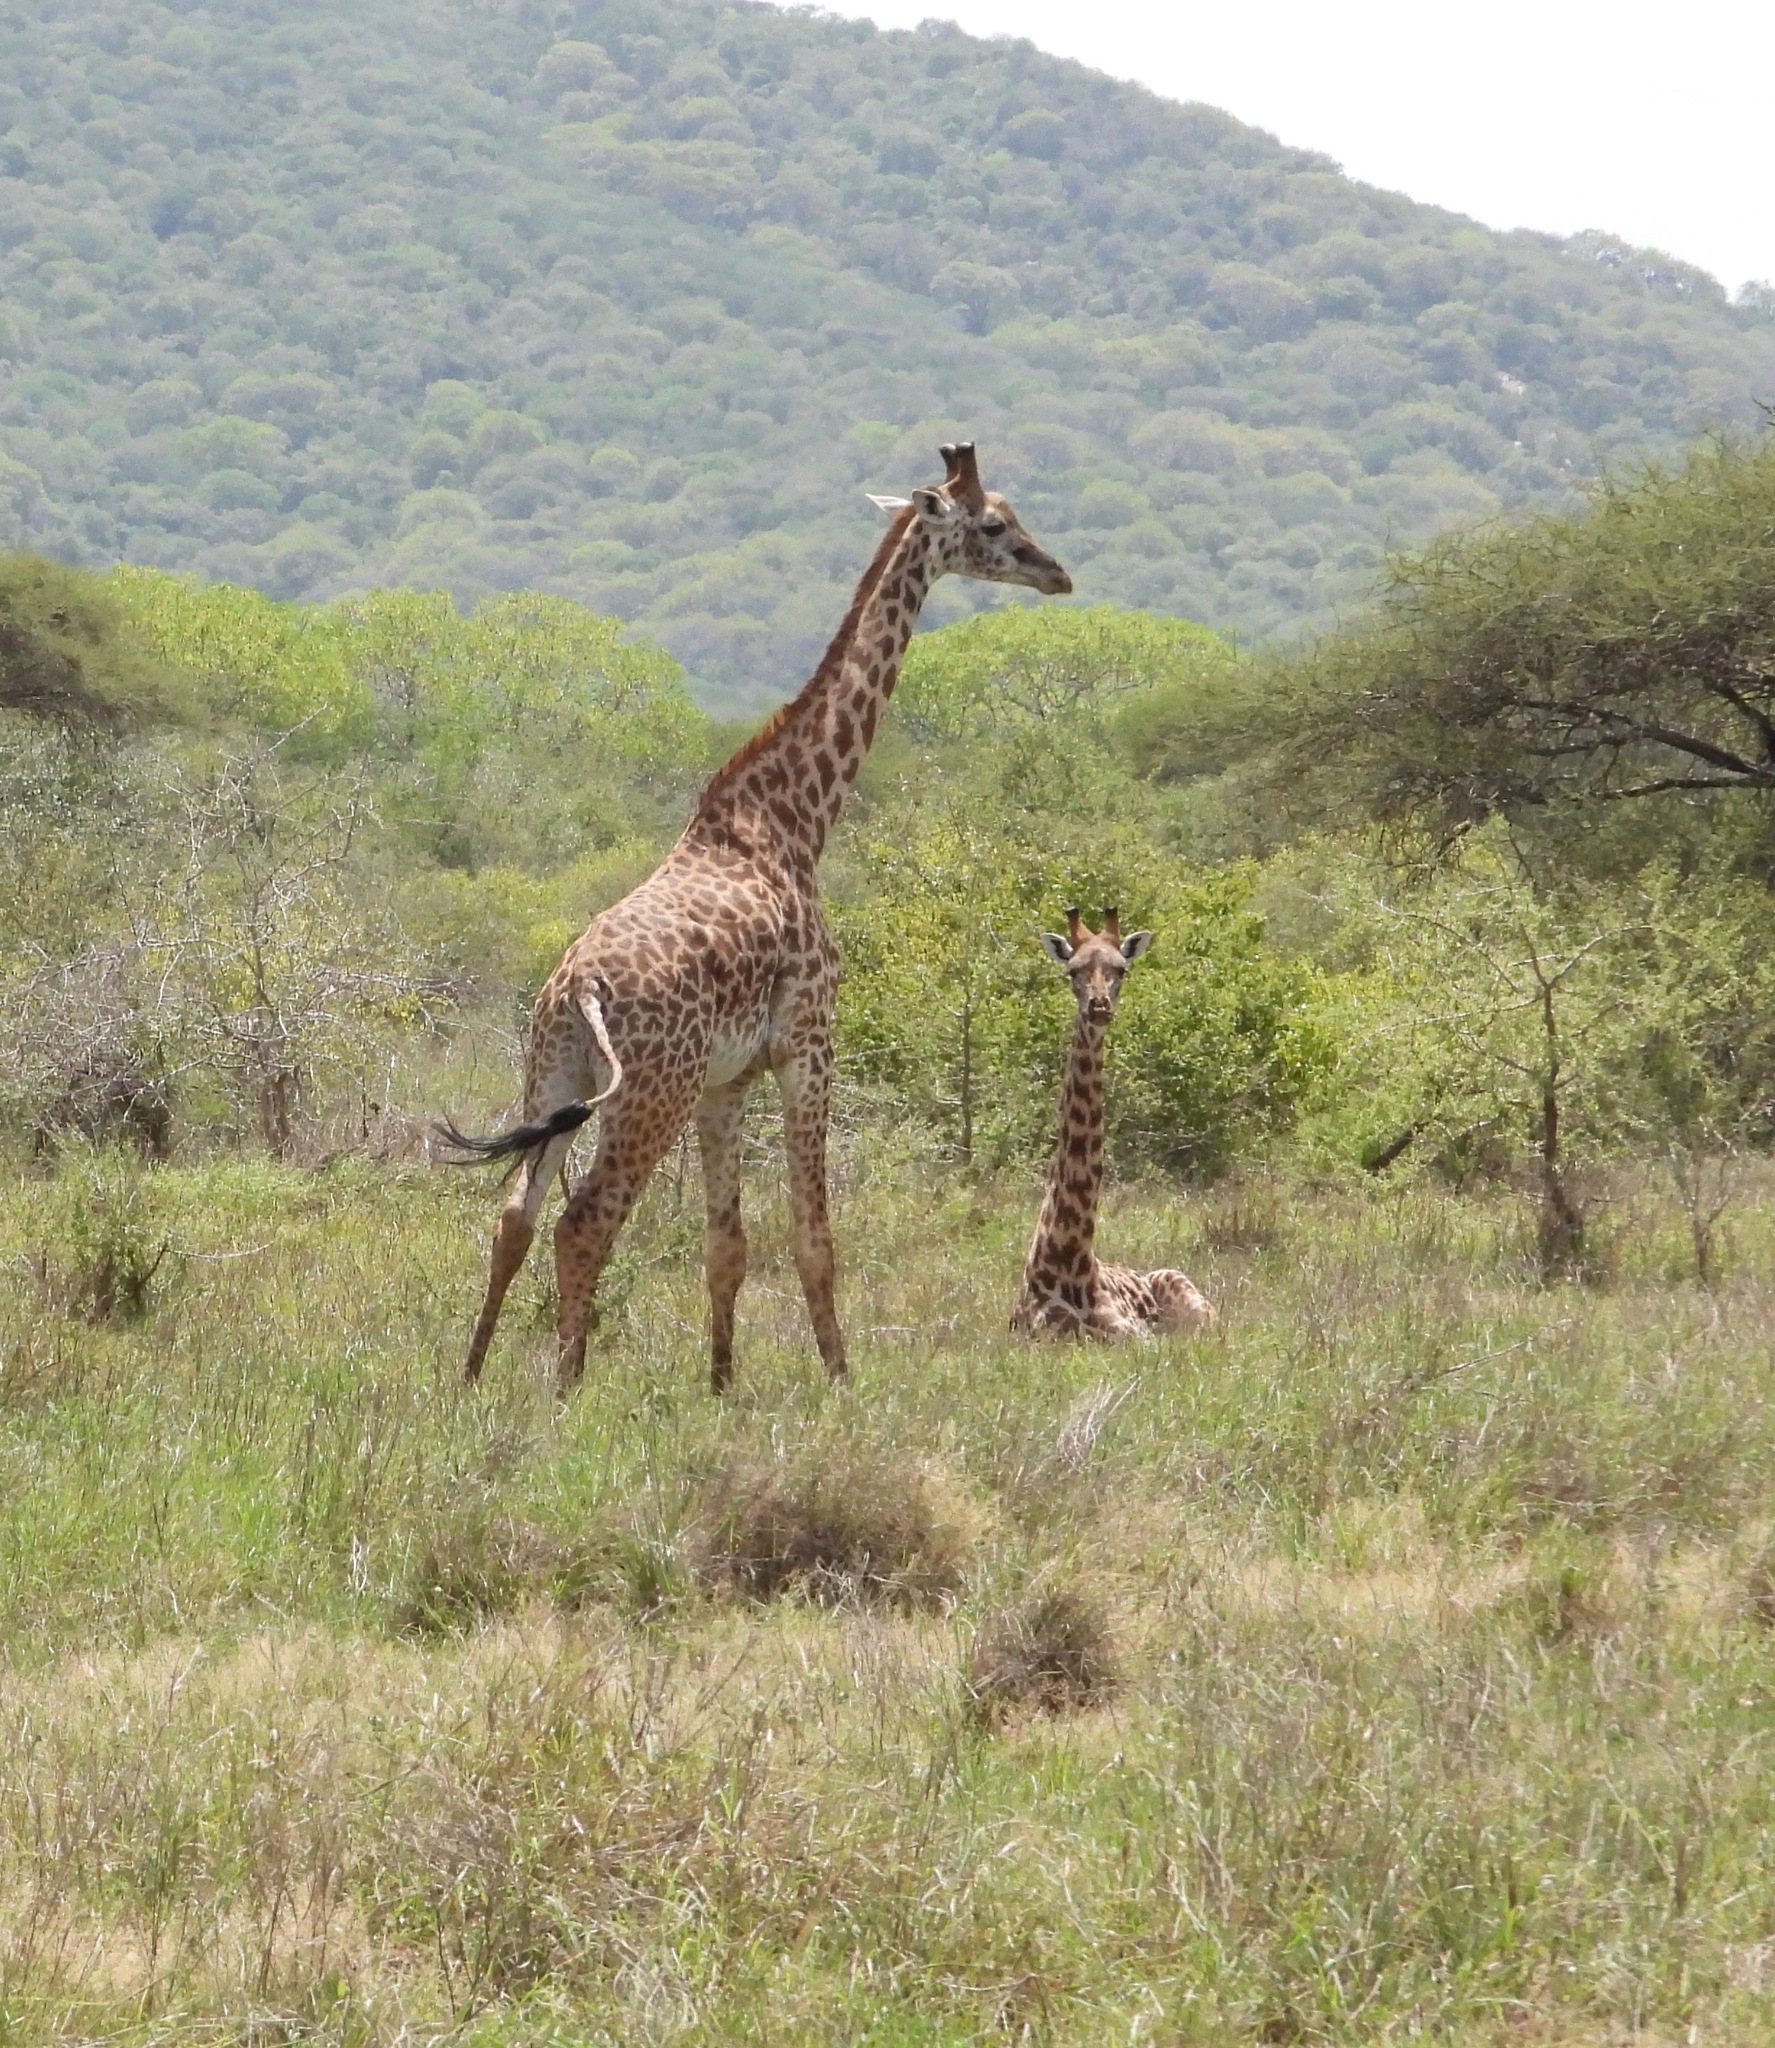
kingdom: Animalia
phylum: Chordata
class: Mammalia
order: Artiodactyla
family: Giraffidae
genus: Giraffa
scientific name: Giraffa tippelskirchi
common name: Masai giraffe
